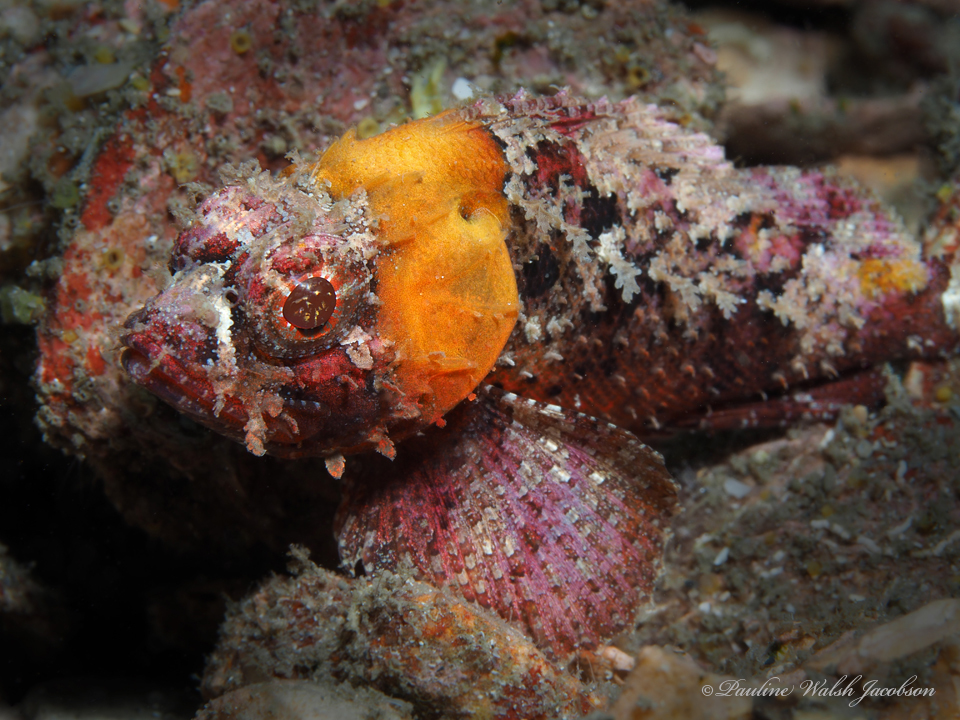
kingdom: Animalia
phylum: Chordata
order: Scorpaeniformes
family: Scorpaenidae
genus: Scorpaena
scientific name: Scorpaena brasiliensis
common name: Barbfish
